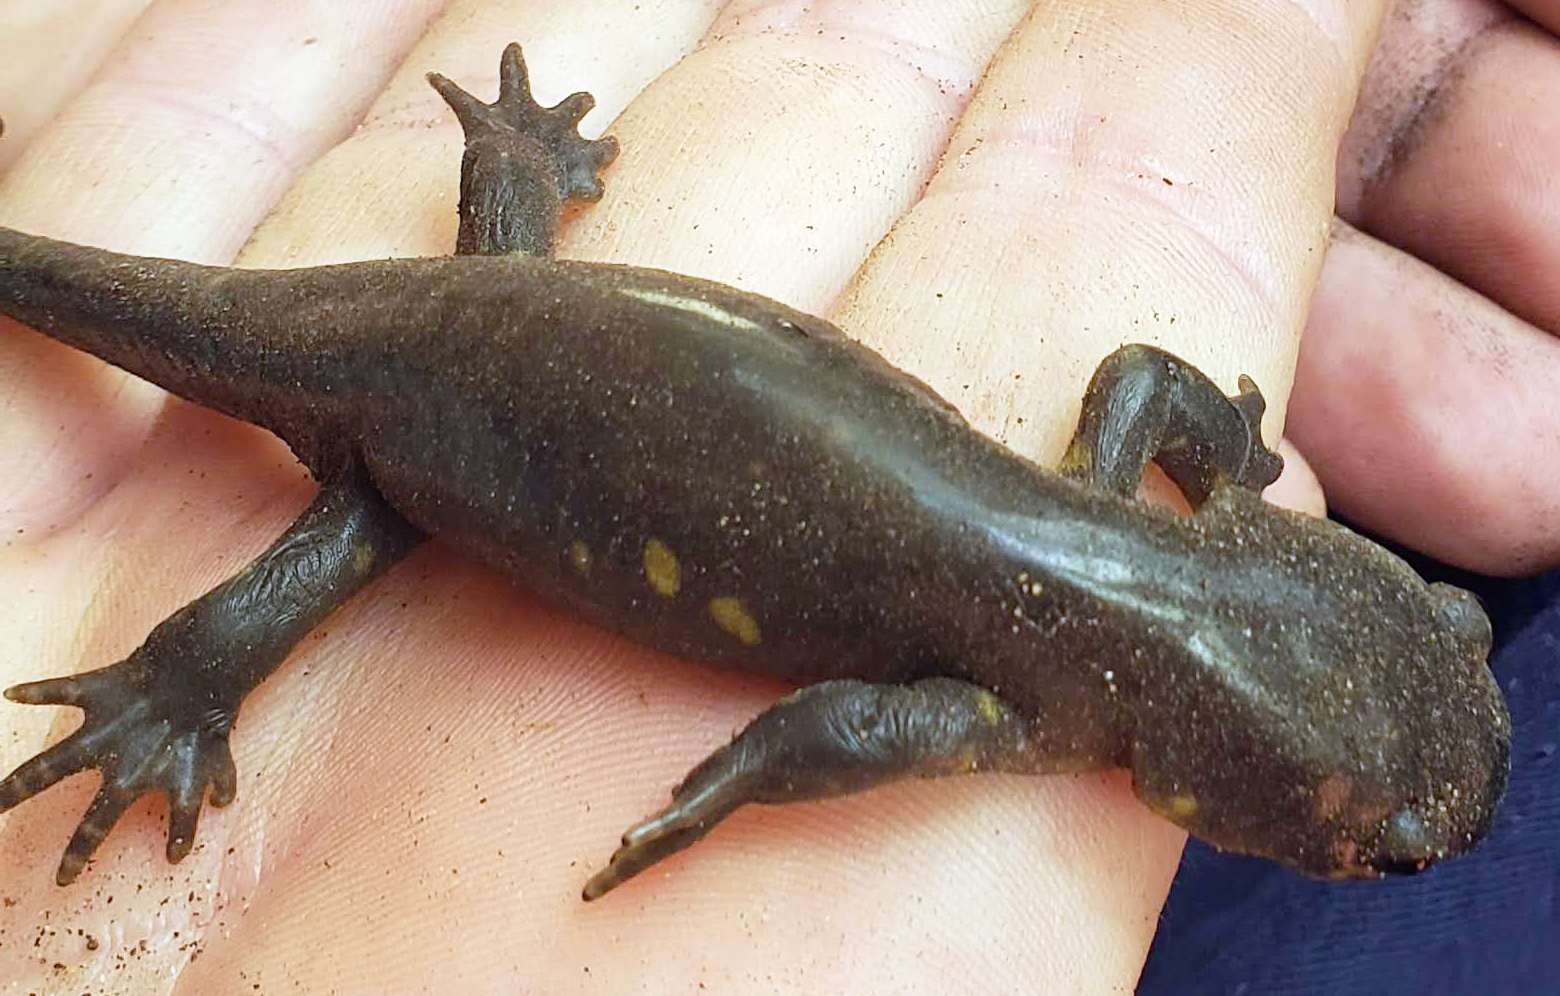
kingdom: Animalia
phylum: Chordata
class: Amphibia
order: Caudata
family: Ambystomatidae
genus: Ambystoma
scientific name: Ambystoma tigrinum
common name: Tiger salamander
